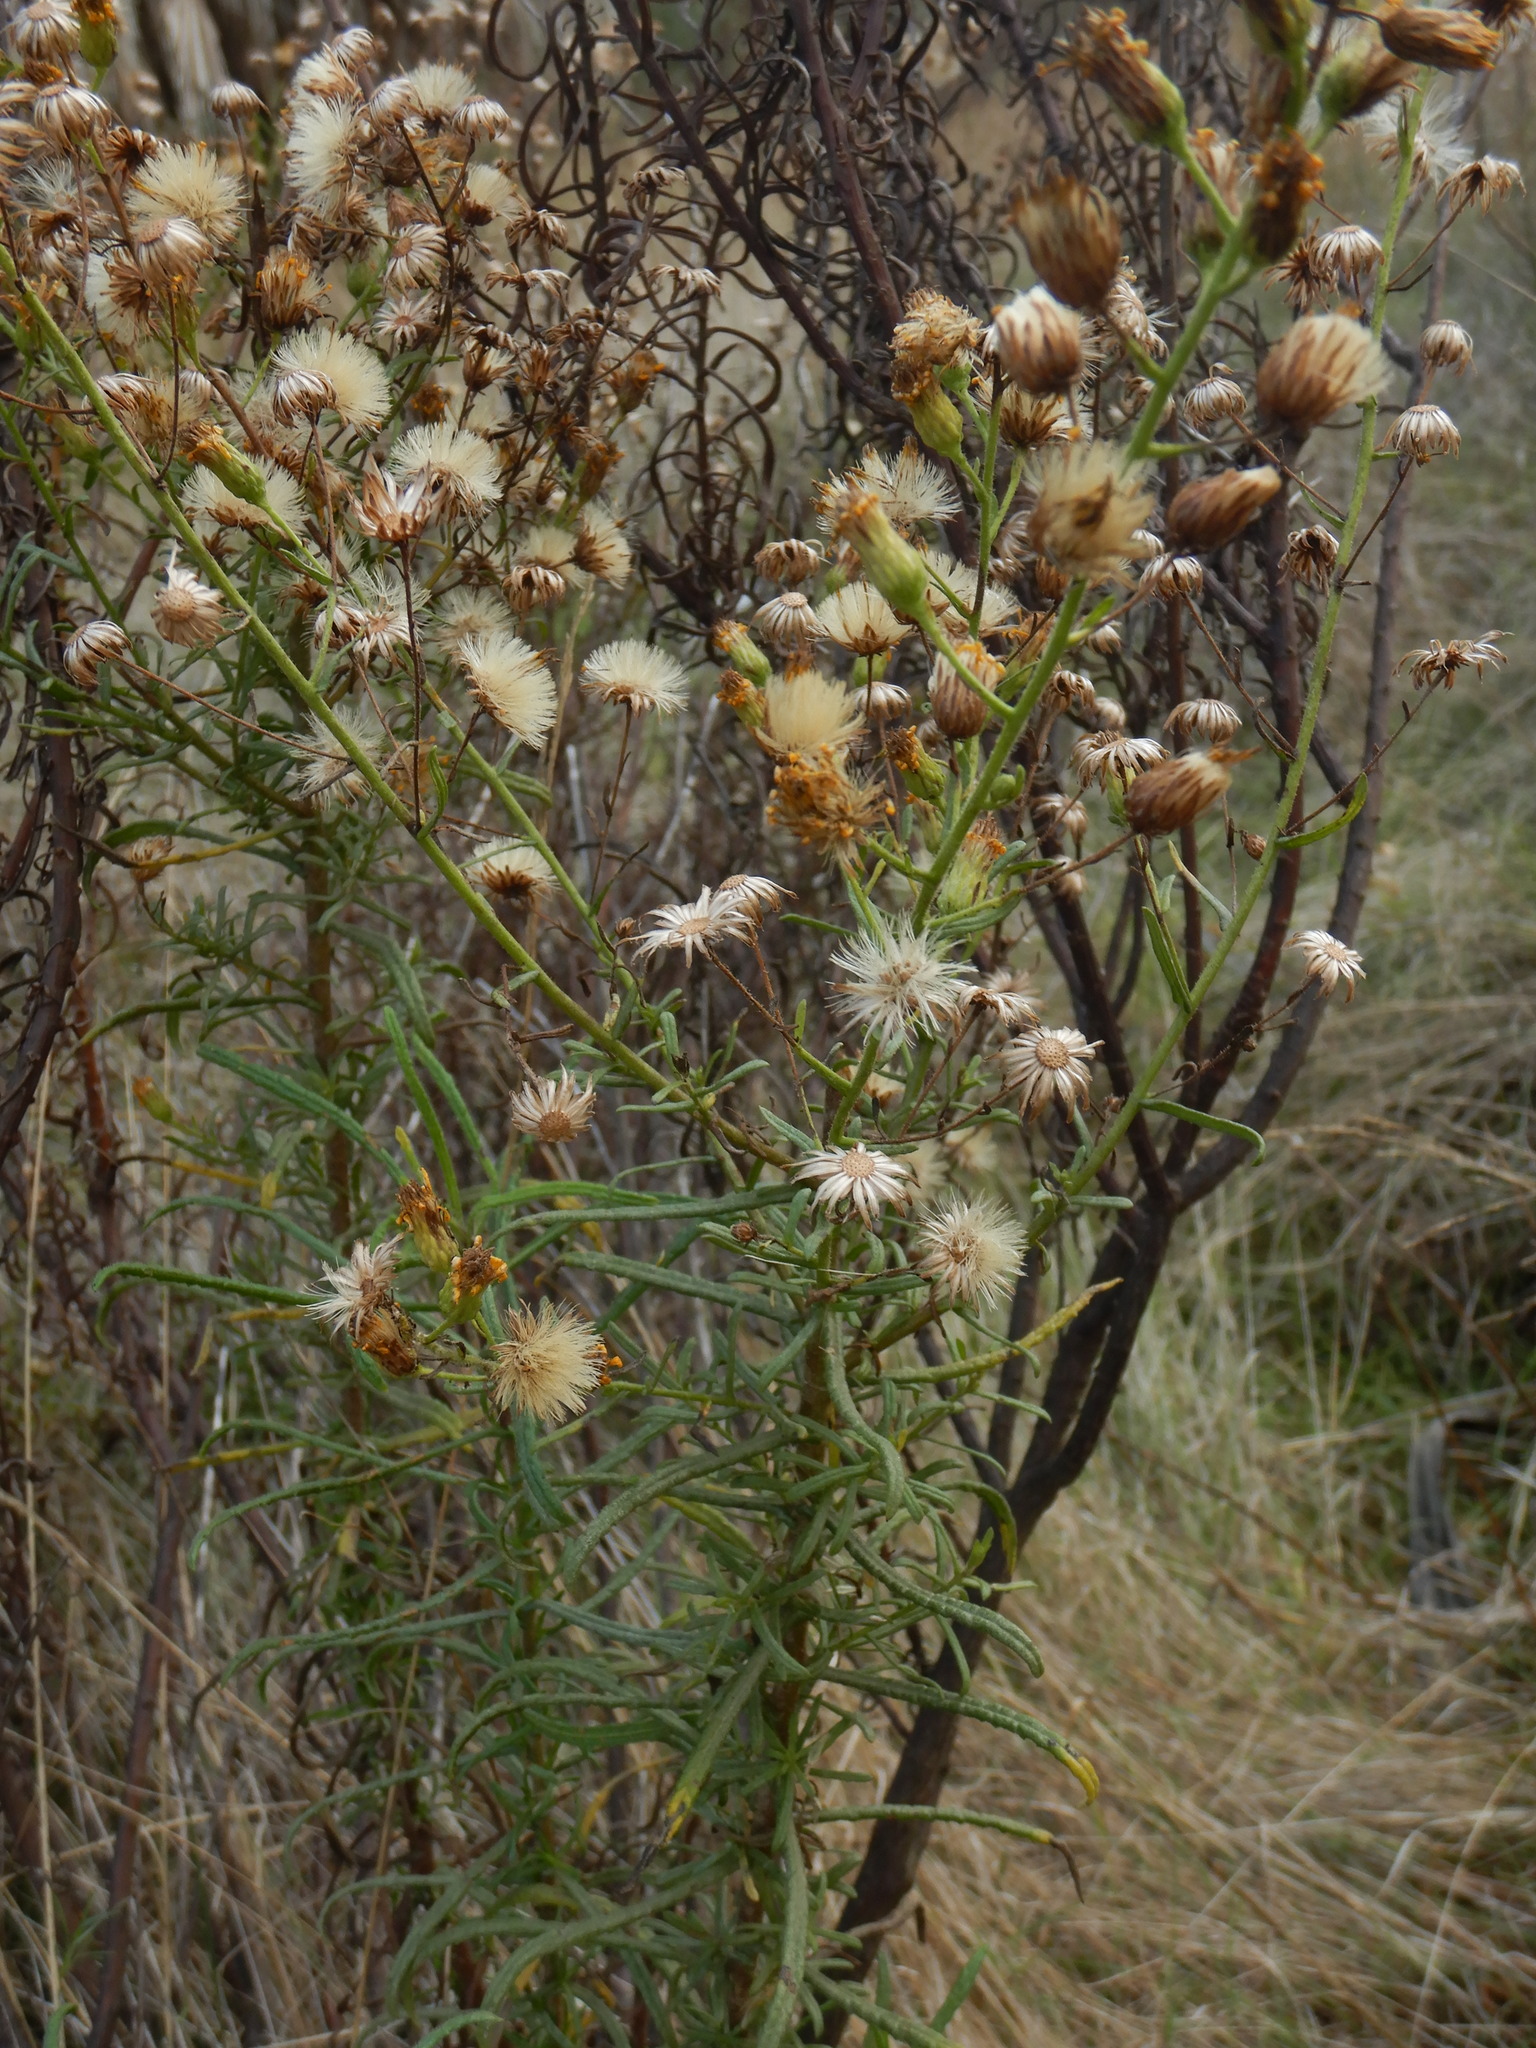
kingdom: Plantae
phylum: Tracheophyta
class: Magnoliopsida
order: Asterales
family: Asteraceae
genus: Dittrichia
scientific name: Dittrichia viscosa
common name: Woody fleabane
